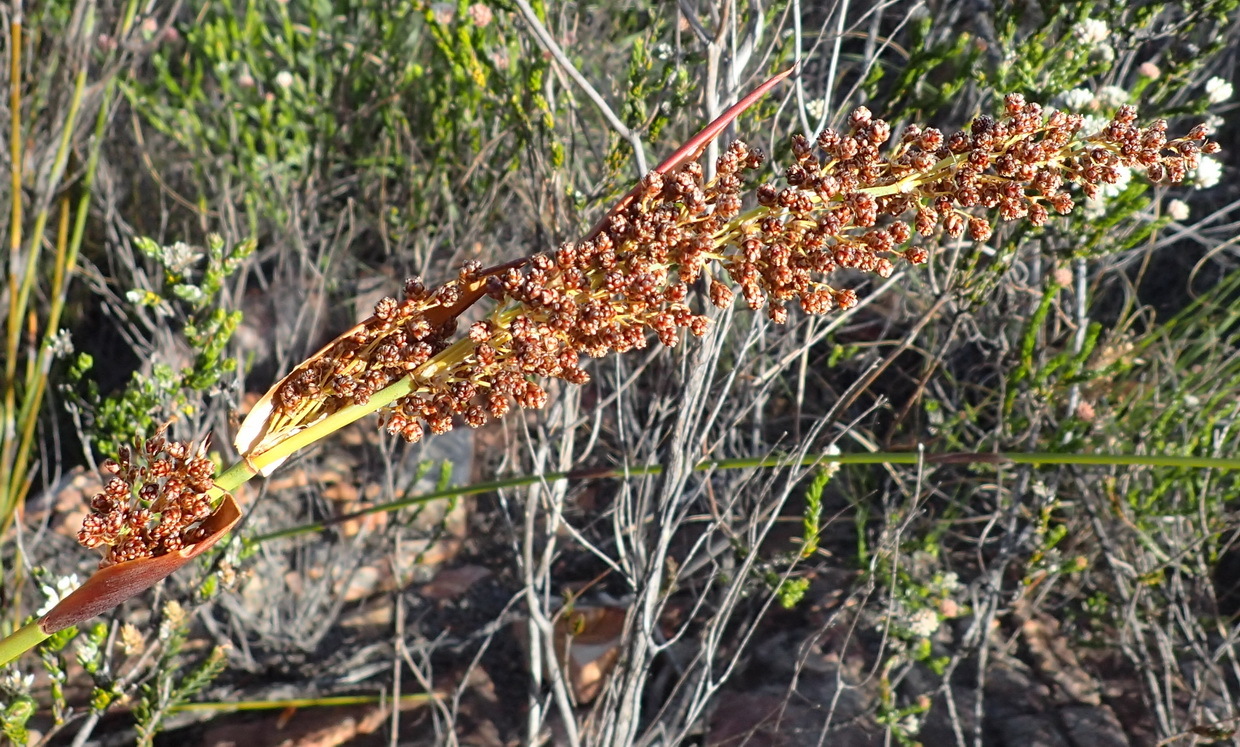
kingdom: Plantae
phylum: Tracheophyta
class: Liliopsida
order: Poales
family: Restionaceae
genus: Cannomois
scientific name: Cannomois scirpoides
